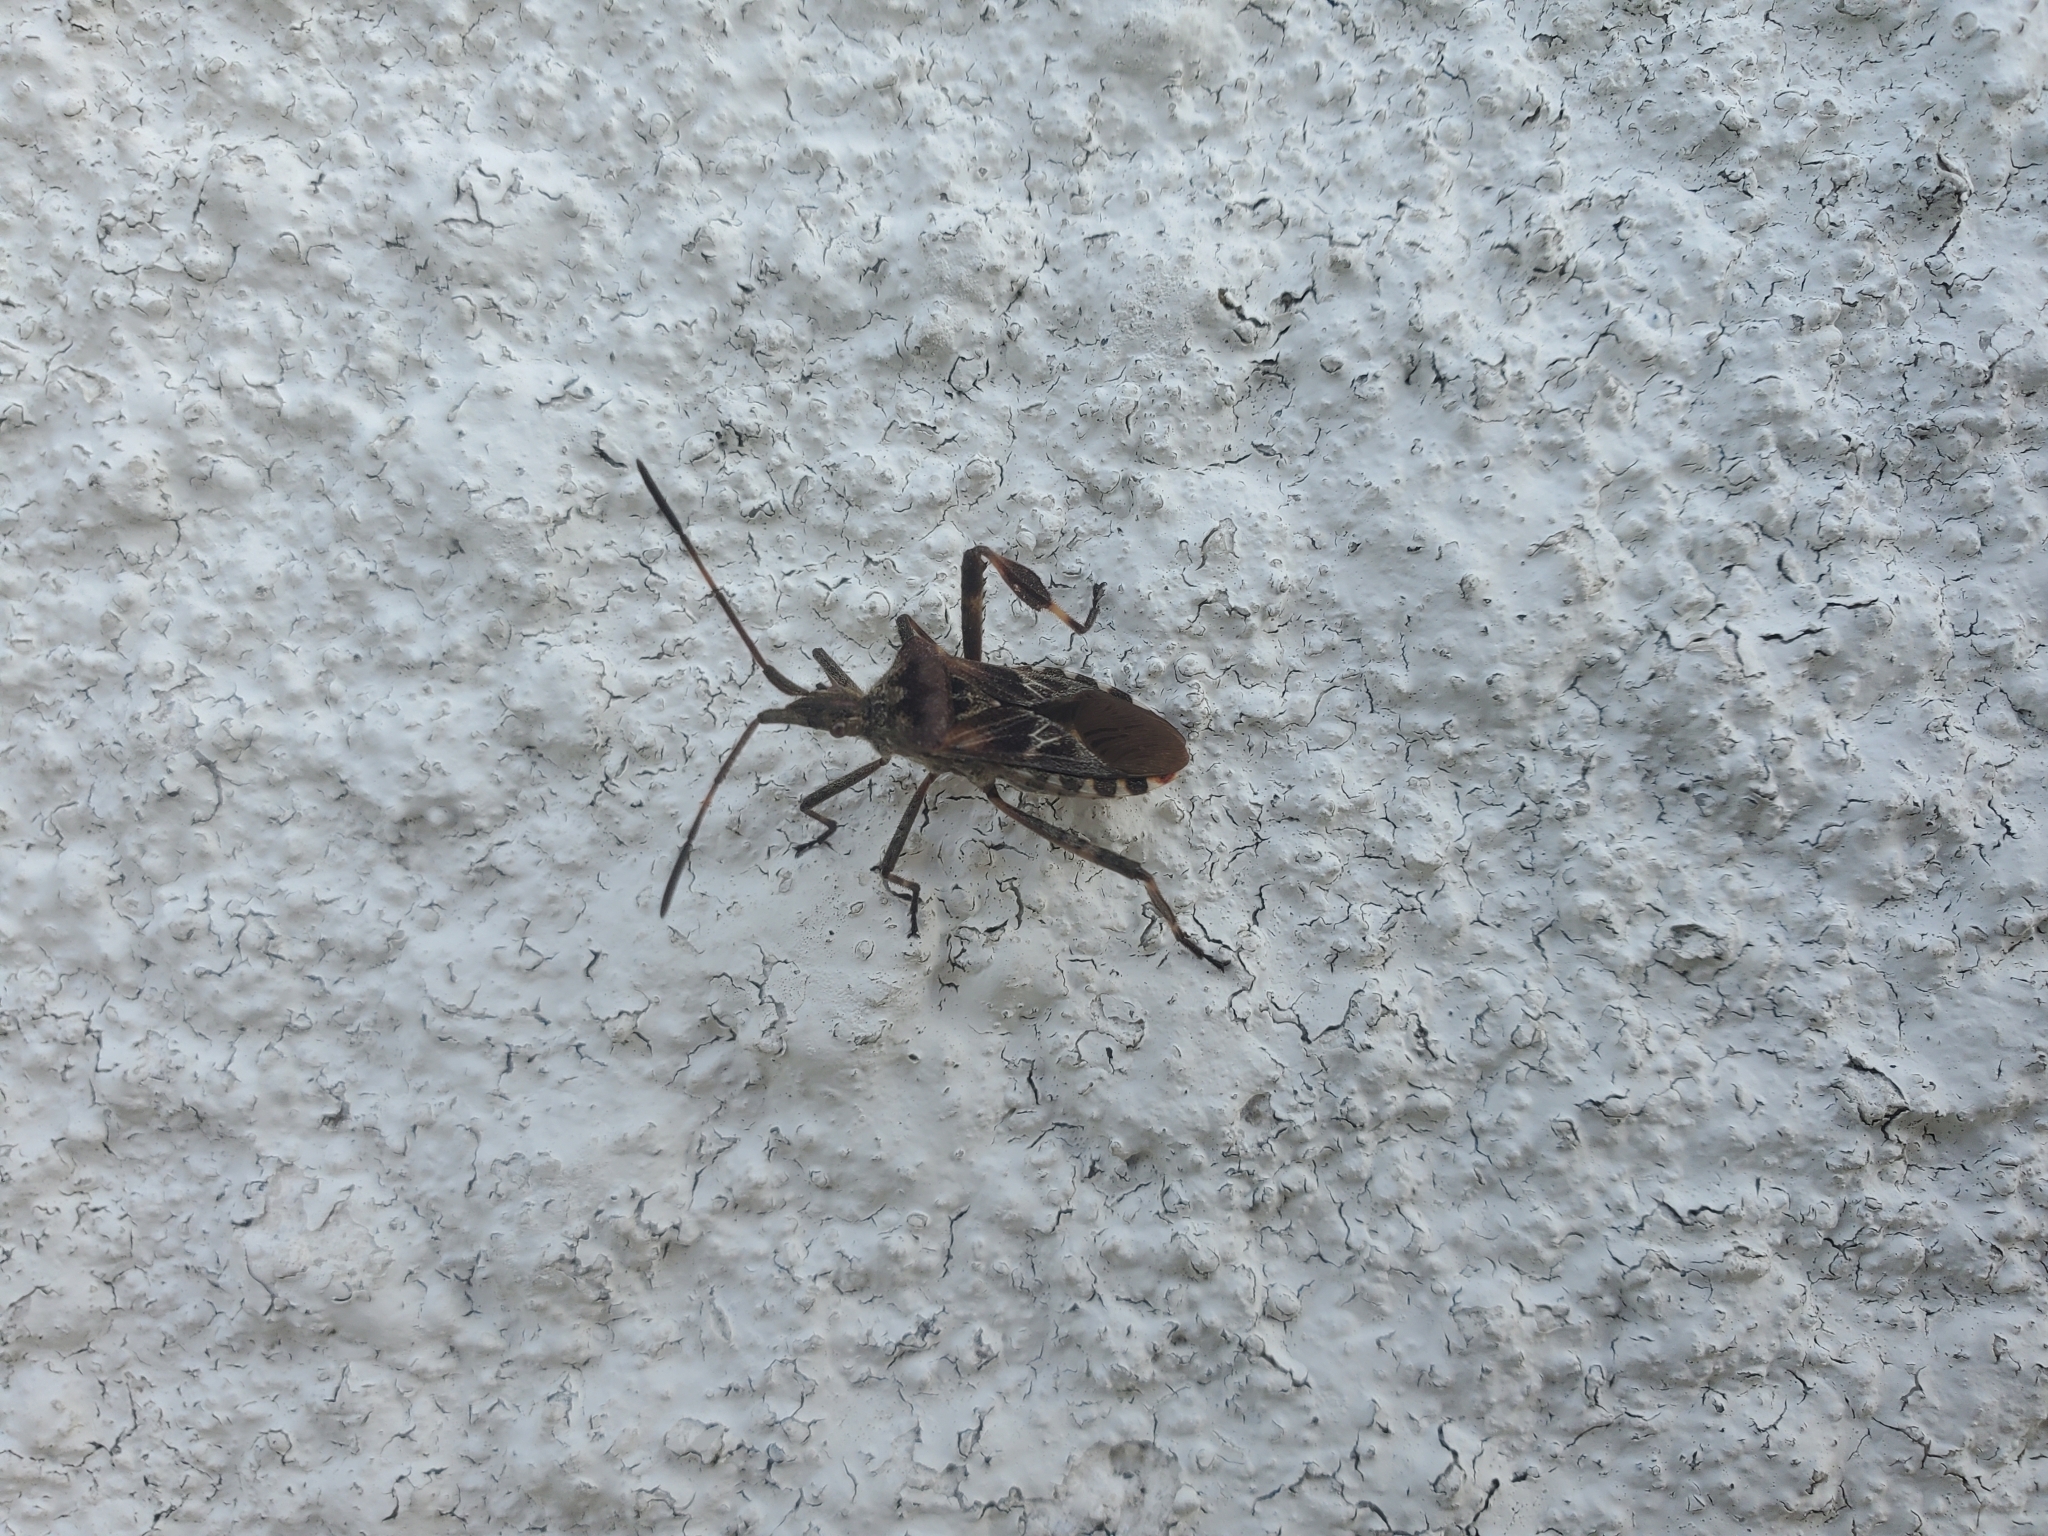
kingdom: Animalia
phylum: Arthropoda
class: Insecta
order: Hemiptera
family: Coreidae
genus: Leptoglossus
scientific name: Leptoglossus occidentalis
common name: Western conifer-seed bug
